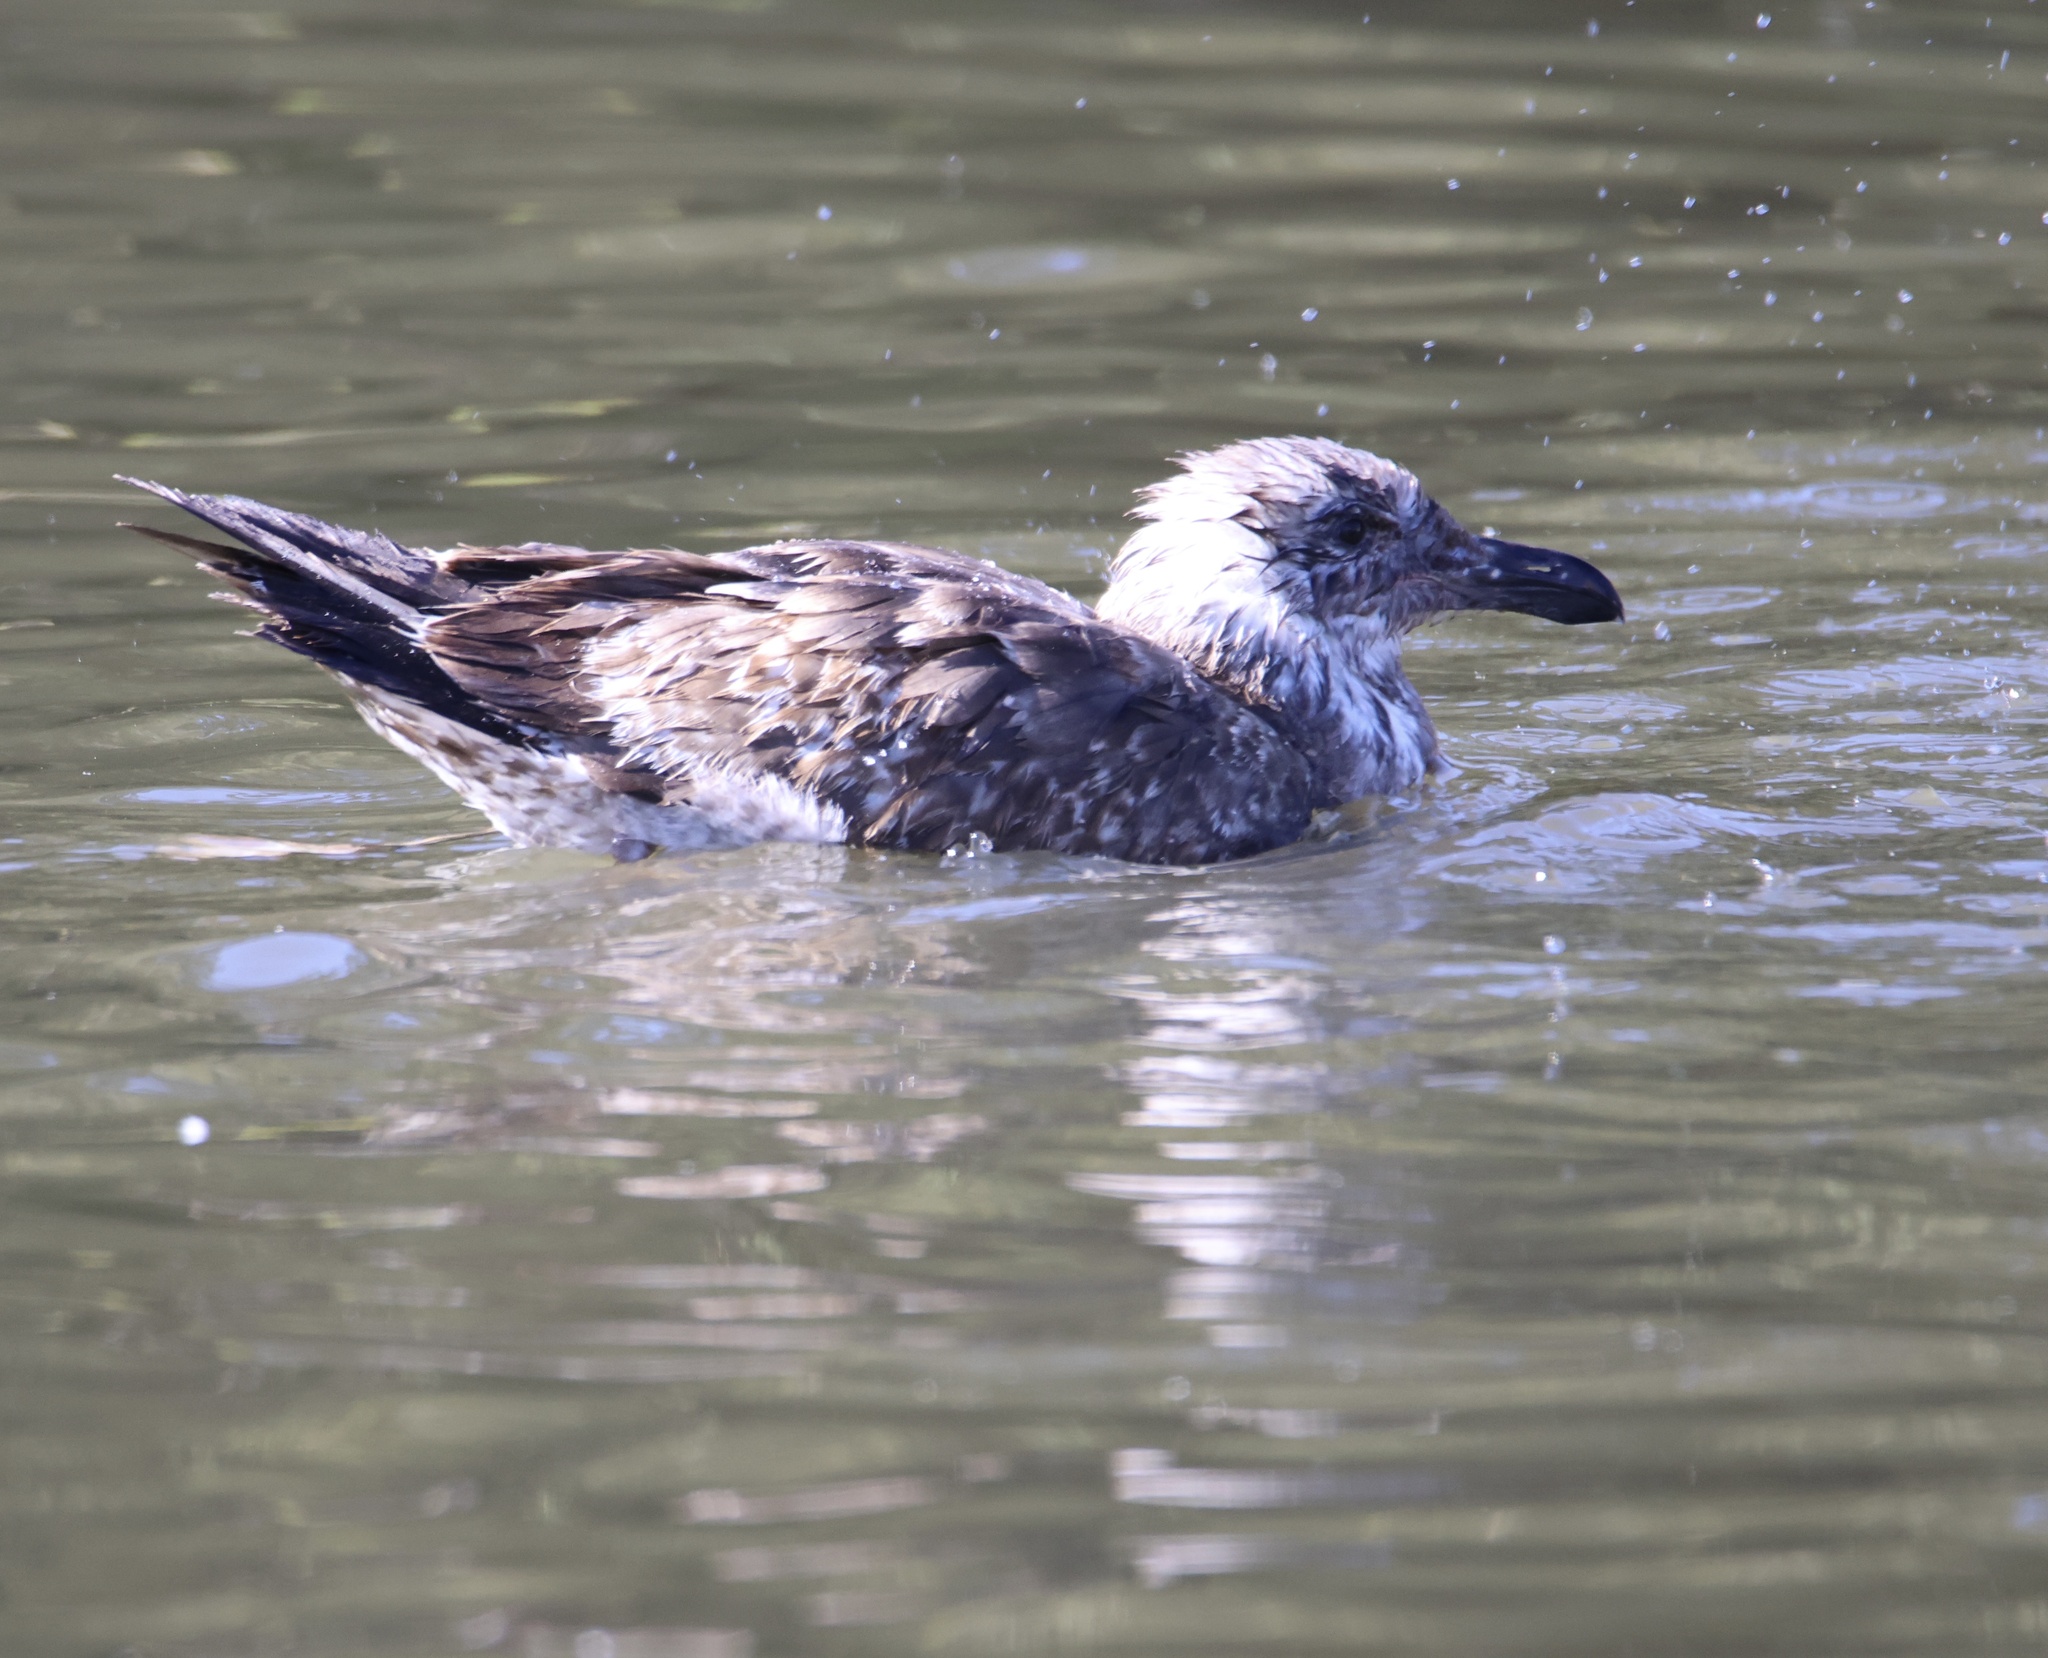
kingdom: Animalia
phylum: Chordata
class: Aves
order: Charadriiformes
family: Laridae
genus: Larus
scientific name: Larus occidentalis
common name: Western gull
